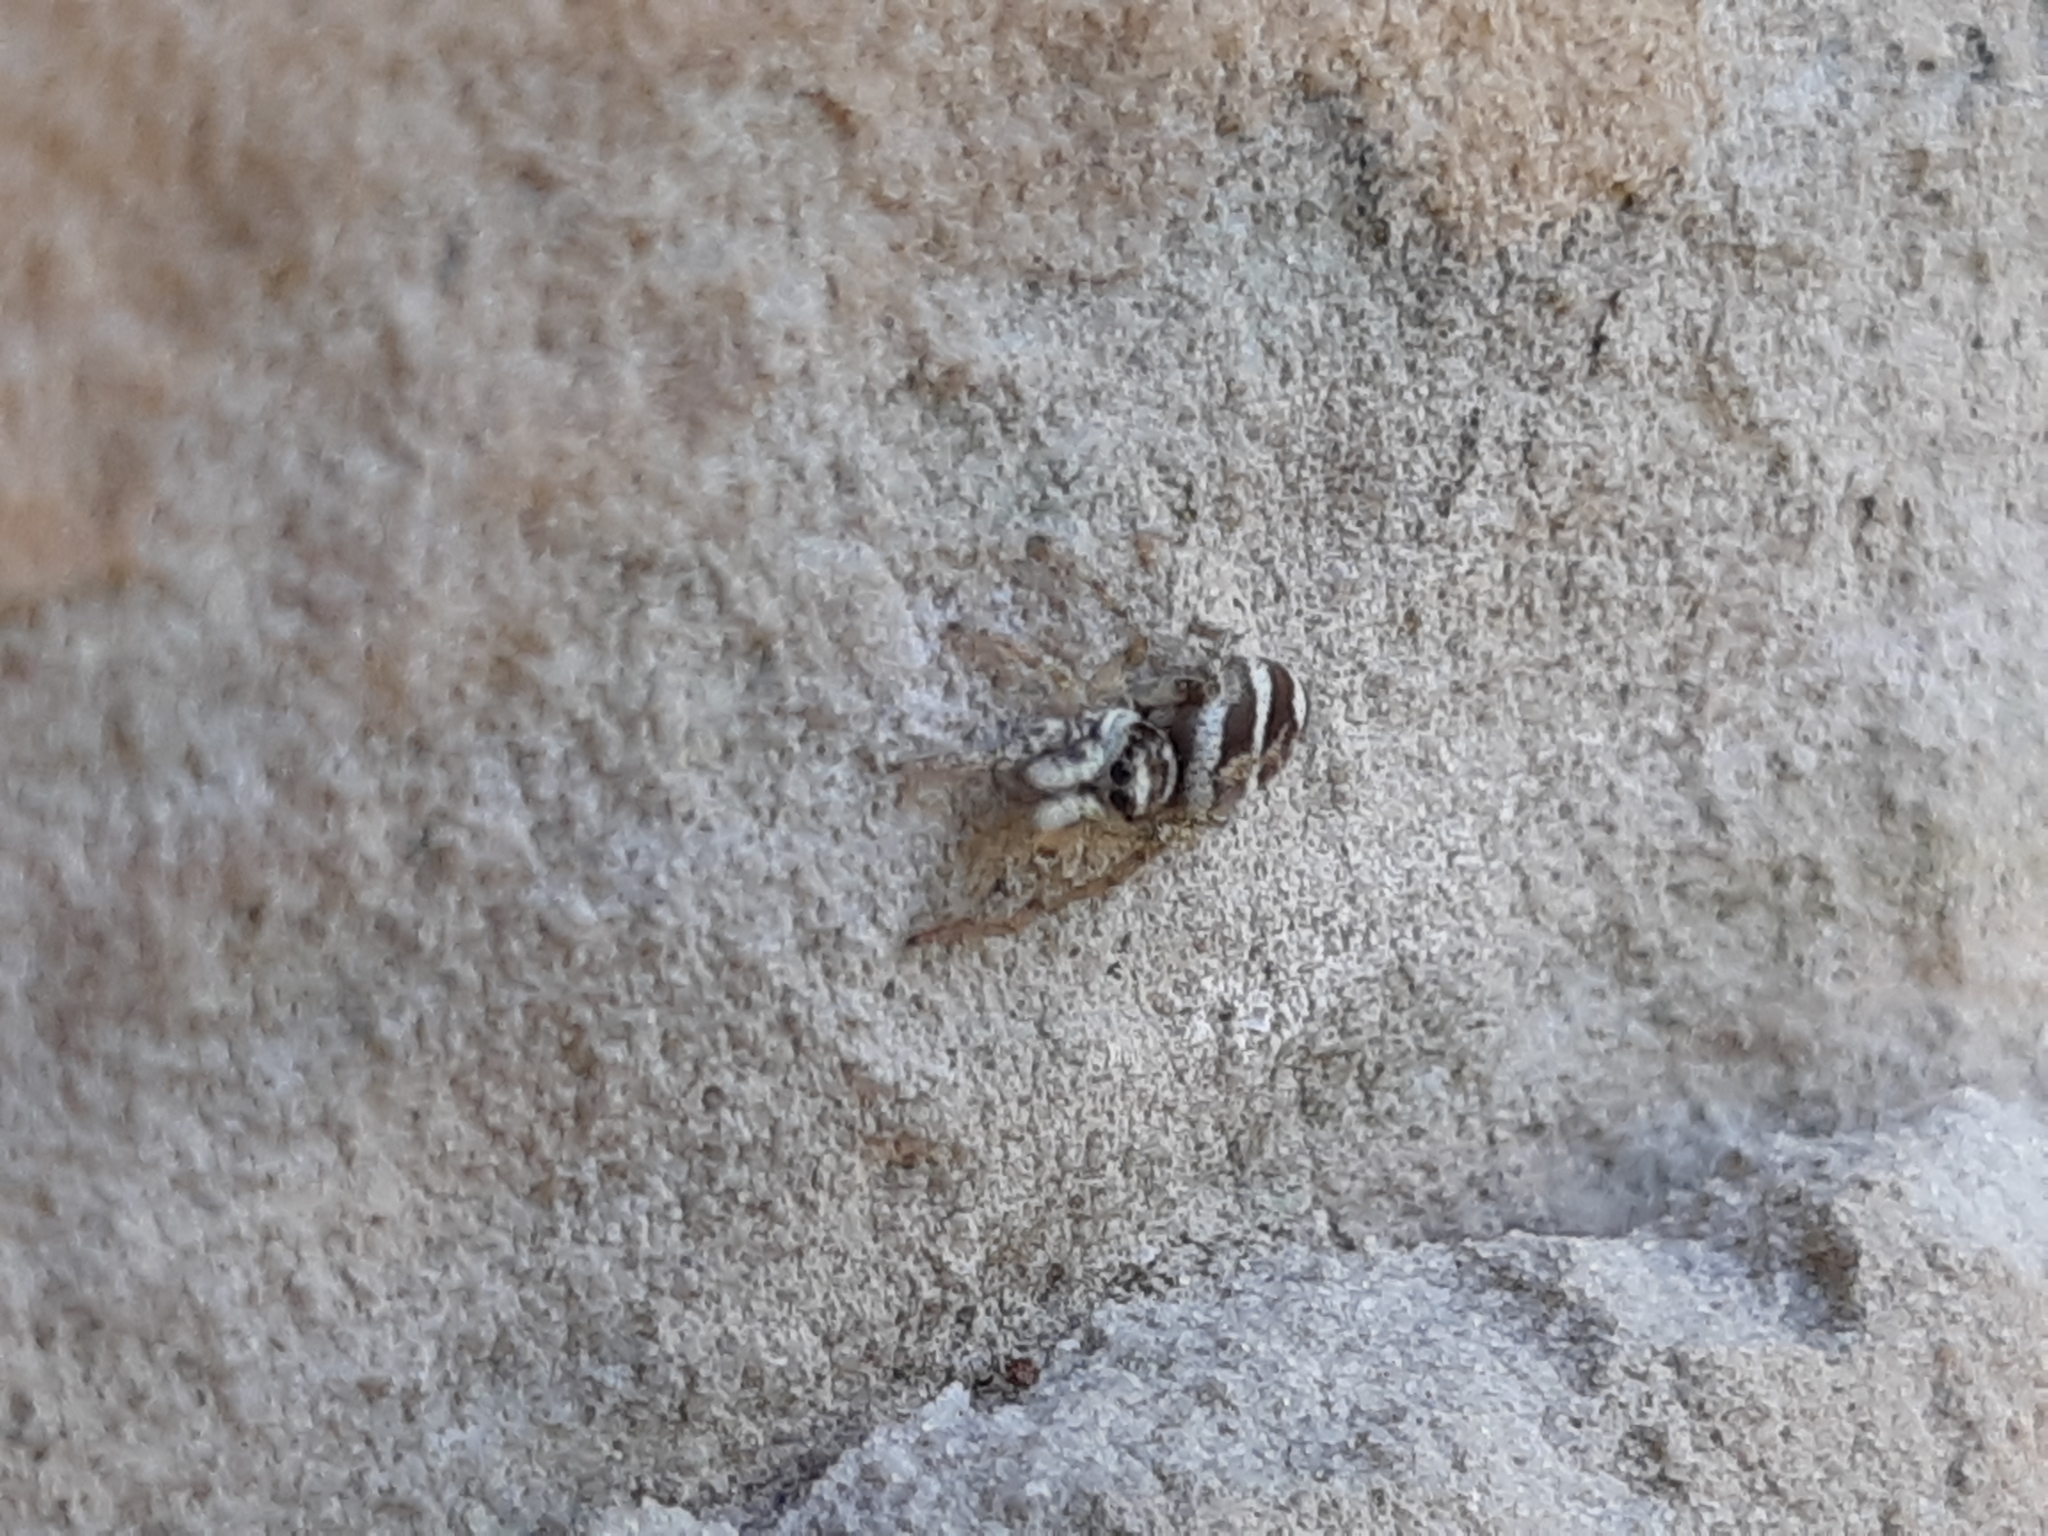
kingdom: Animalia
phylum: Arthropoda
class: Arachnida
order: Araneae
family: Salticidae
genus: Salticus
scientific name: Salticus scenicus
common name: Zebra jumper
